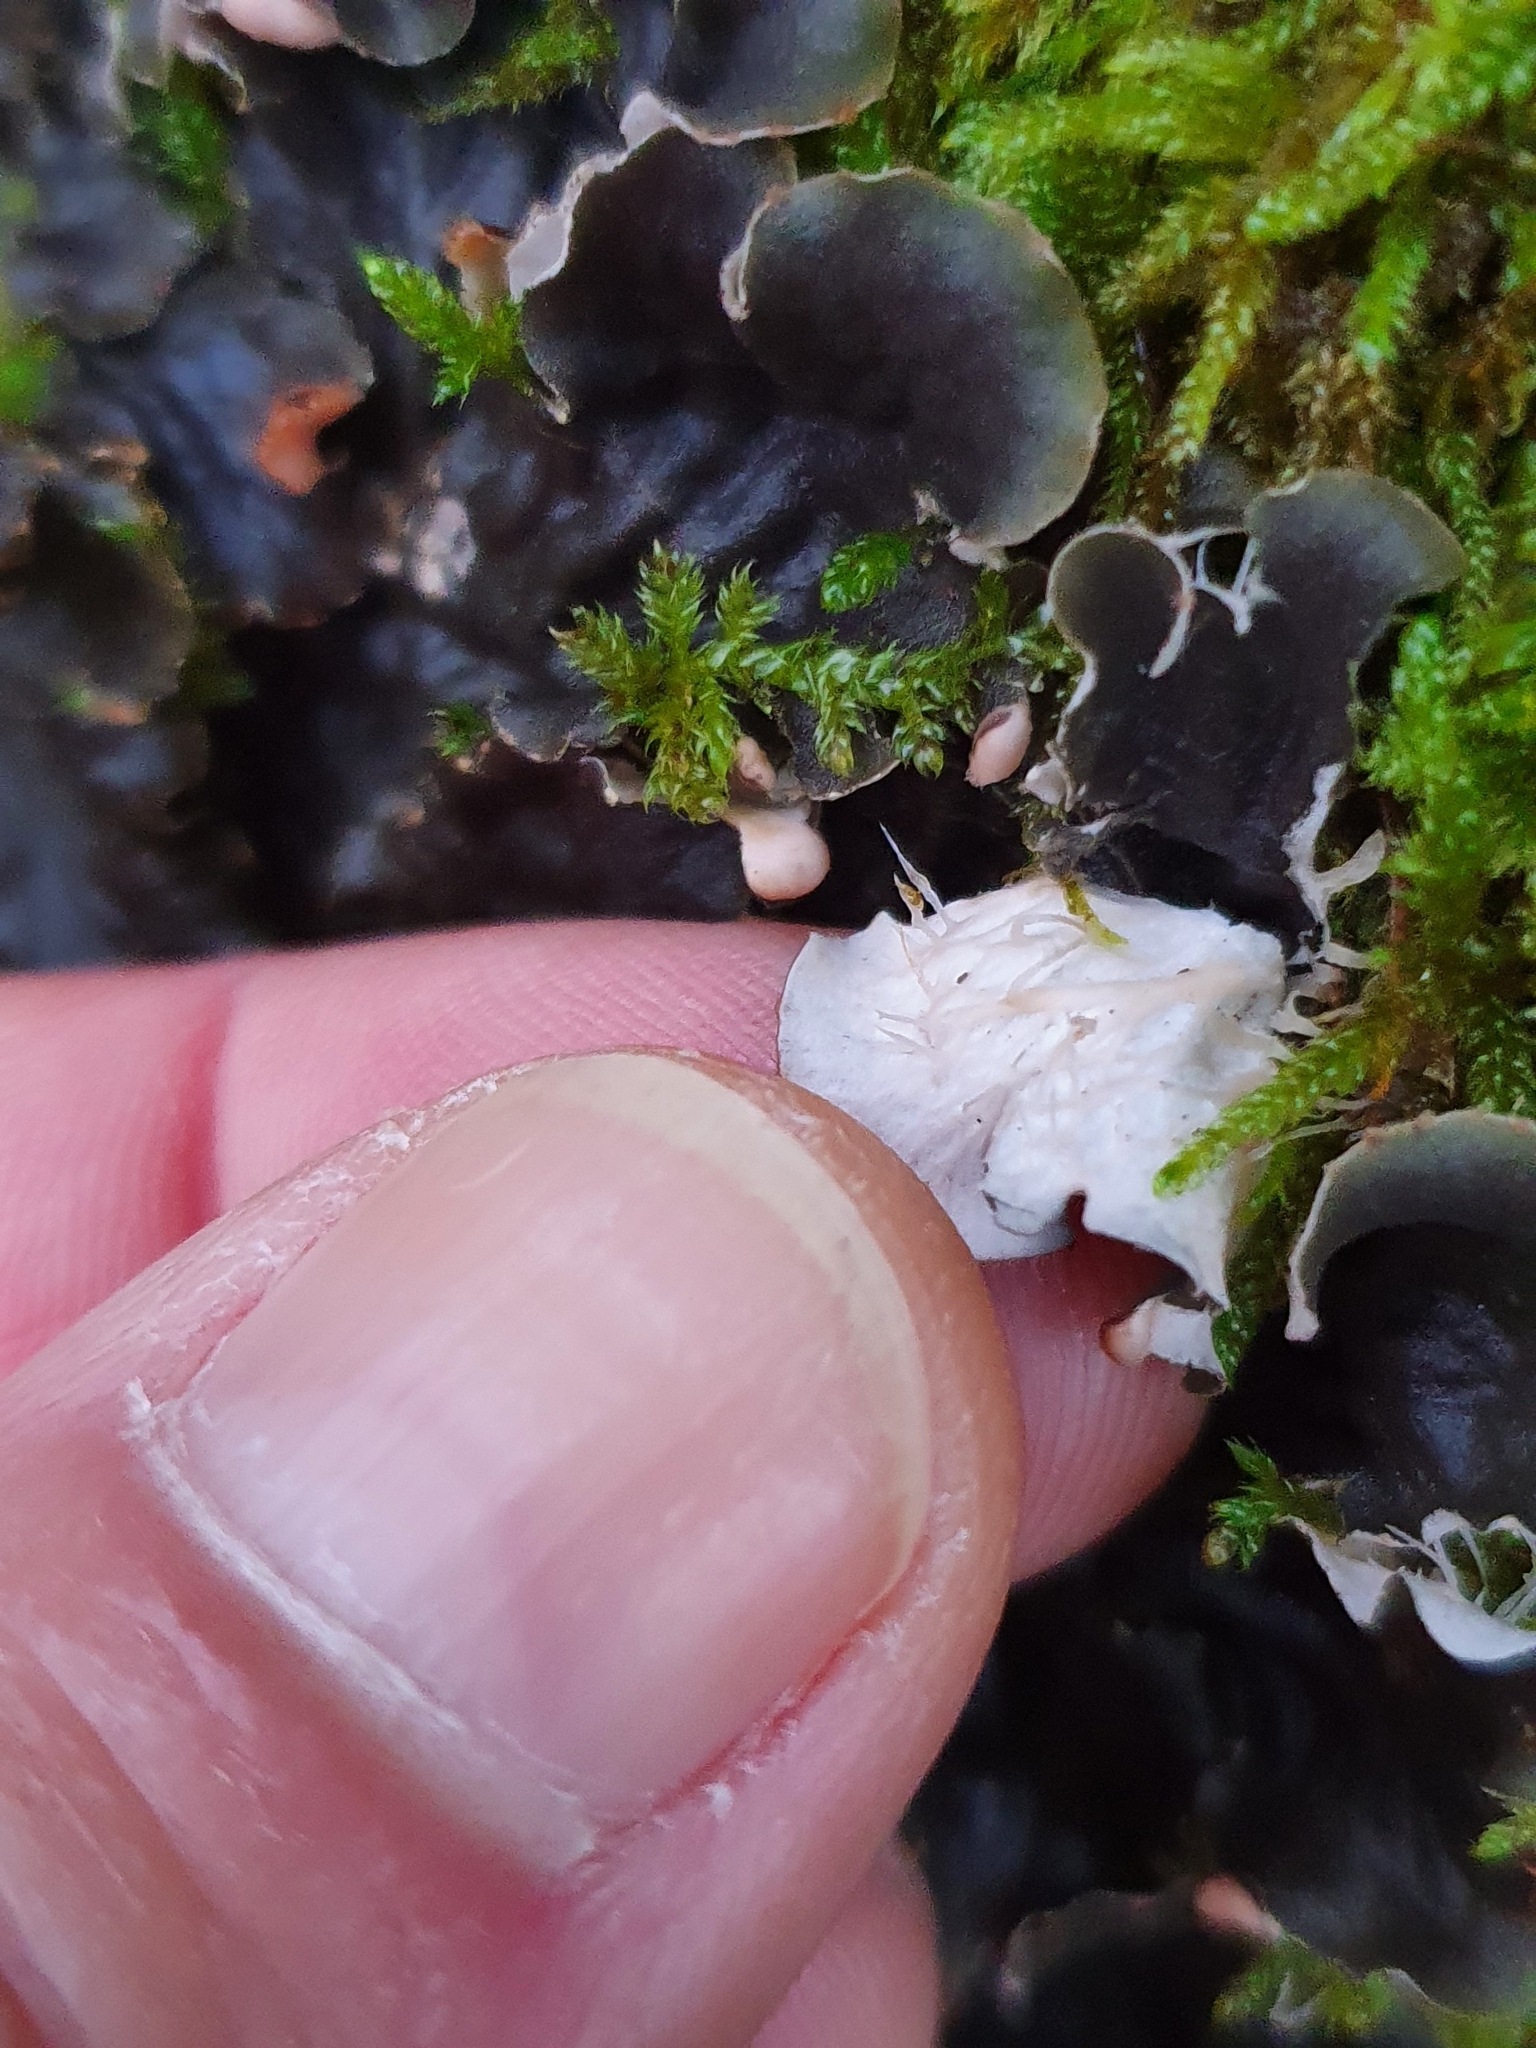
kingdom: Fungi
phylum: Ascomycota
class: Lecanoromycetes
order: Peltigerales
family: Peltigeraceae
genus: Peltigera
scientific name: Peltigera praetextata
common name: Scaly dog-lichen
